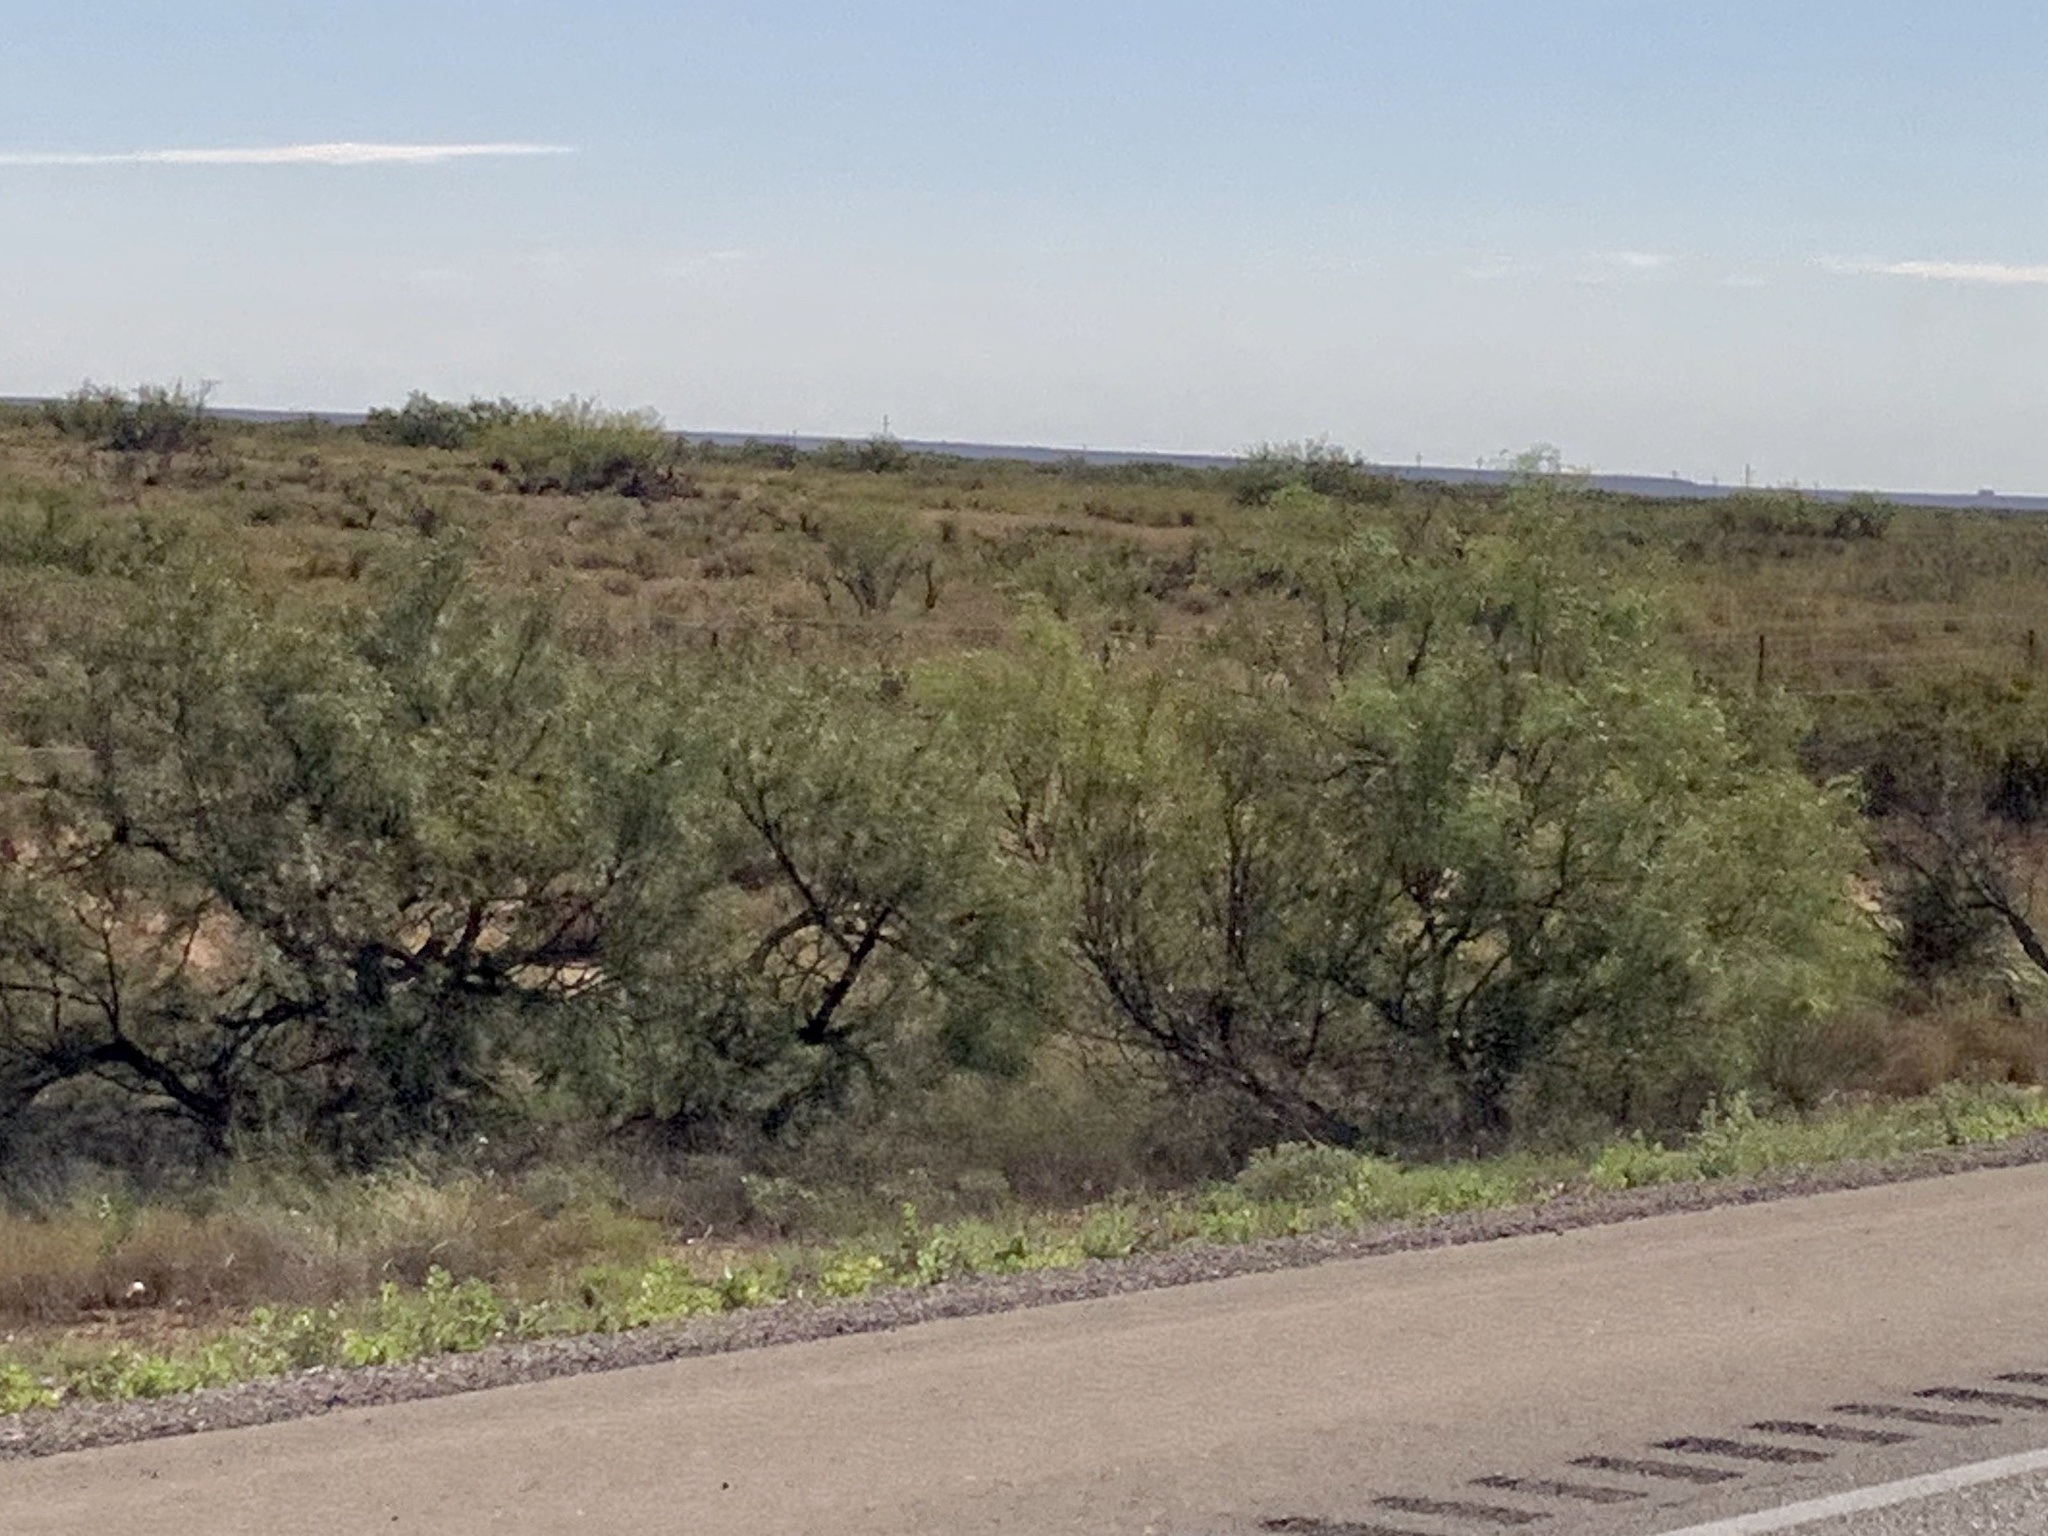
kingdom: Plantae
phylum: Tracheophyta
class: Magnoliopsida
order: Fabales
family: Fabaceae
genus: Prosopis
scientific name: Prosopis glandulosa
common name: Honey mesquite
